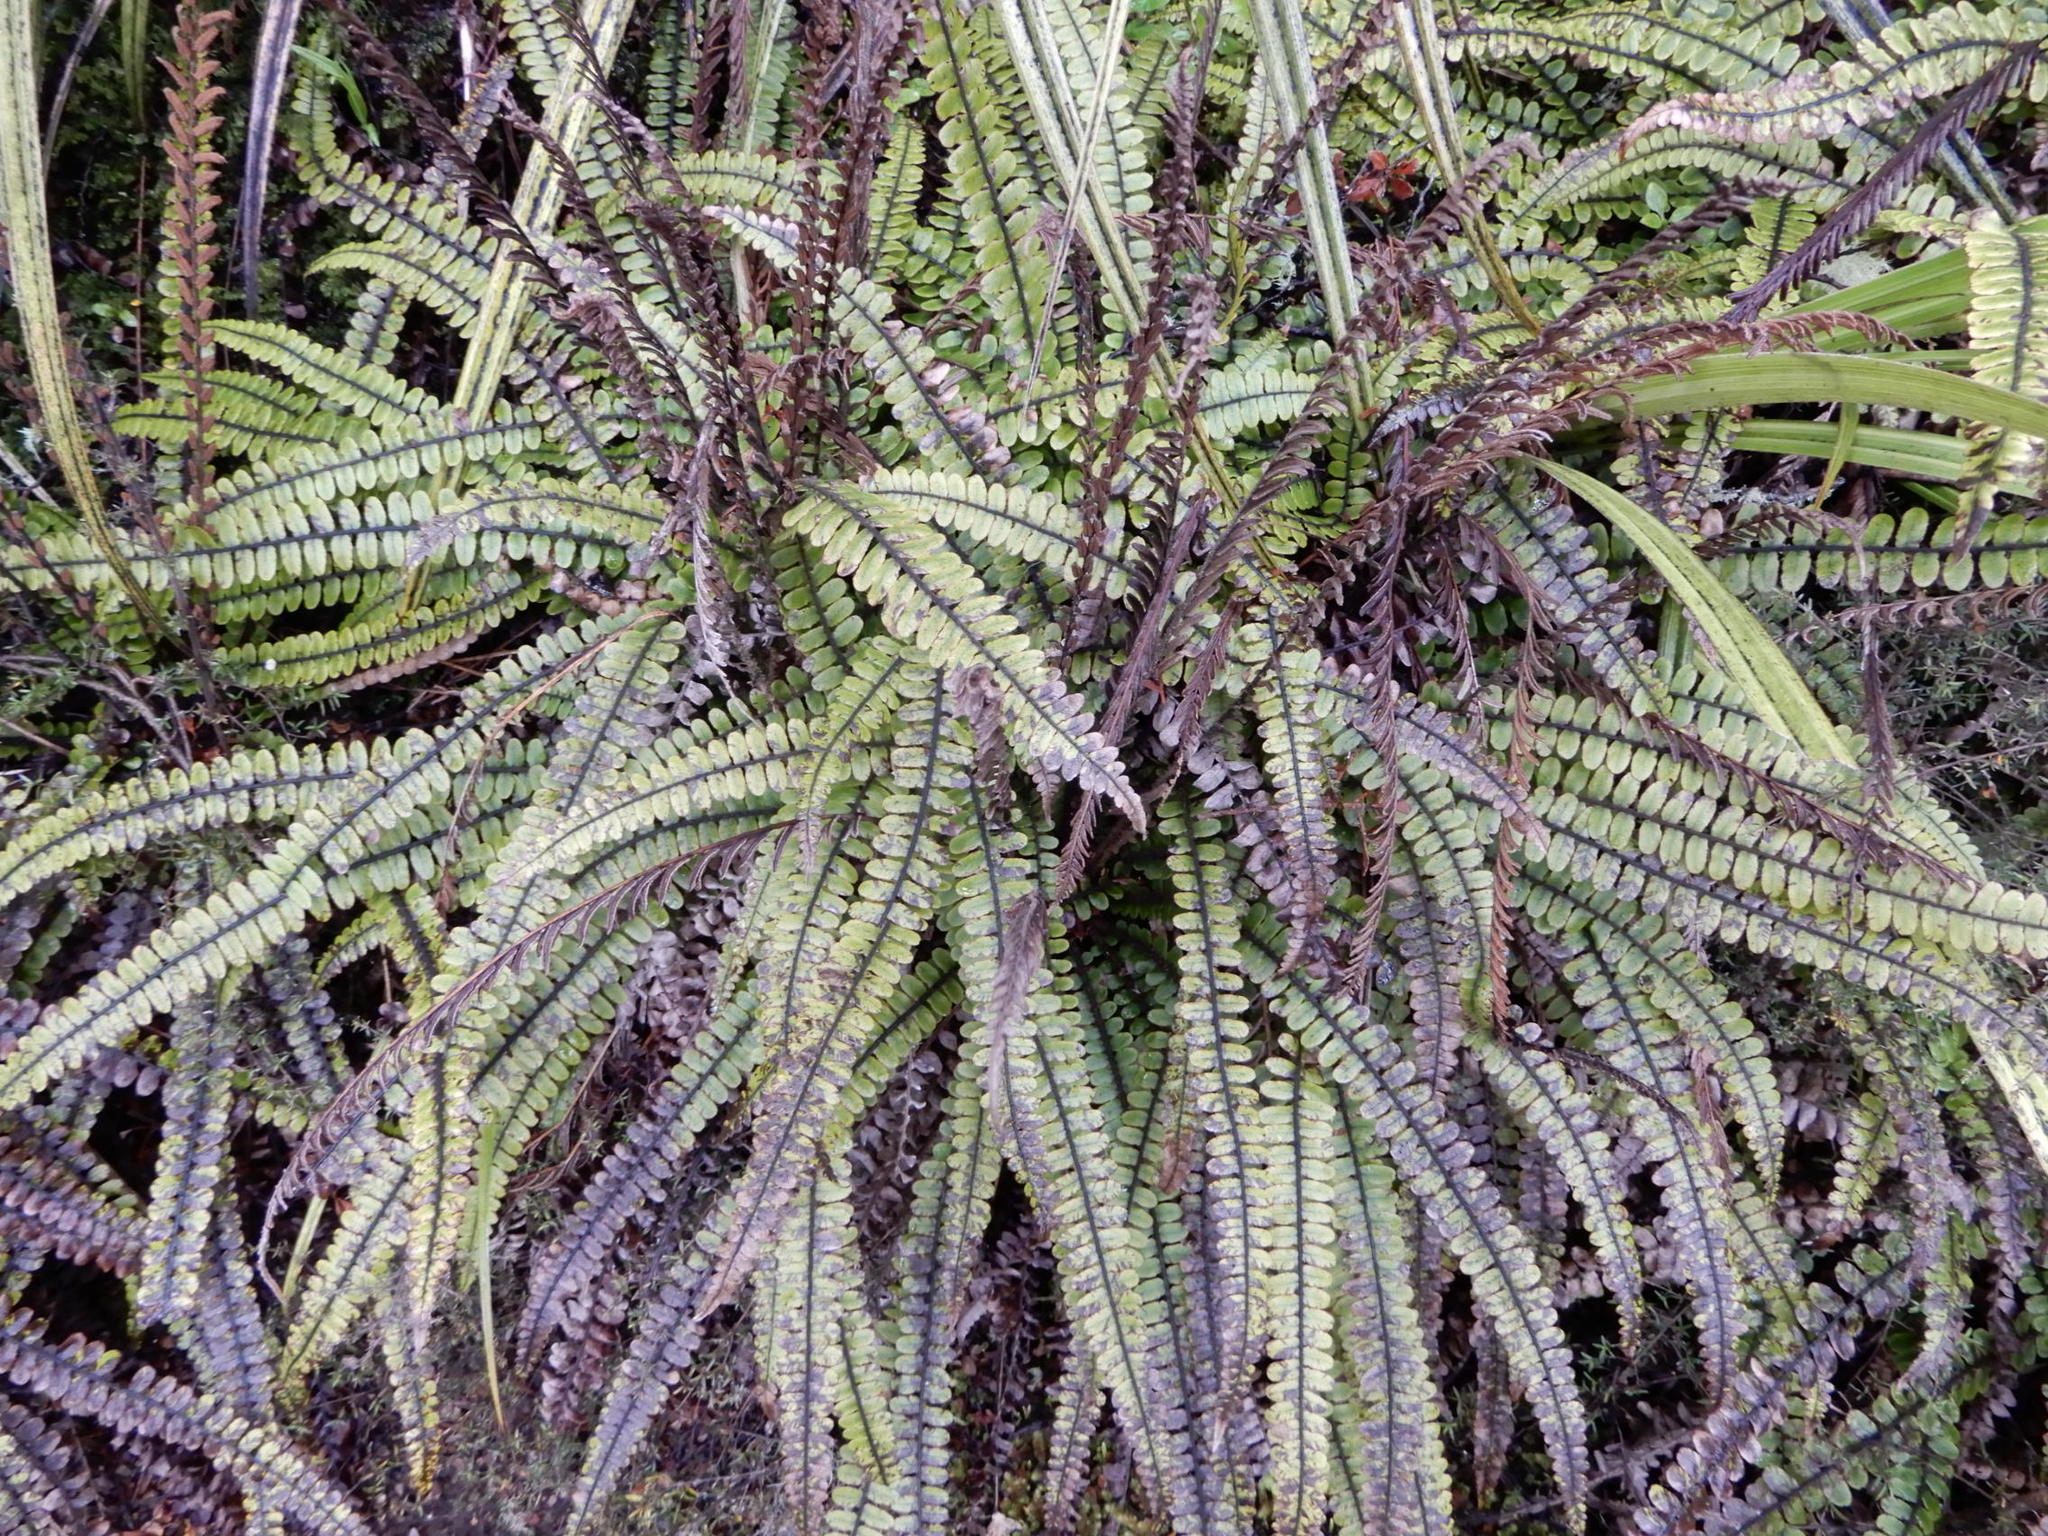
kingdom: Plantae
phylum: Tracheophyta
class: Polypodiopsida
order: Polypodiales
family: Blechnaceae
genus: Cranfillia
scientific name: Cranfillia fluviatilis
